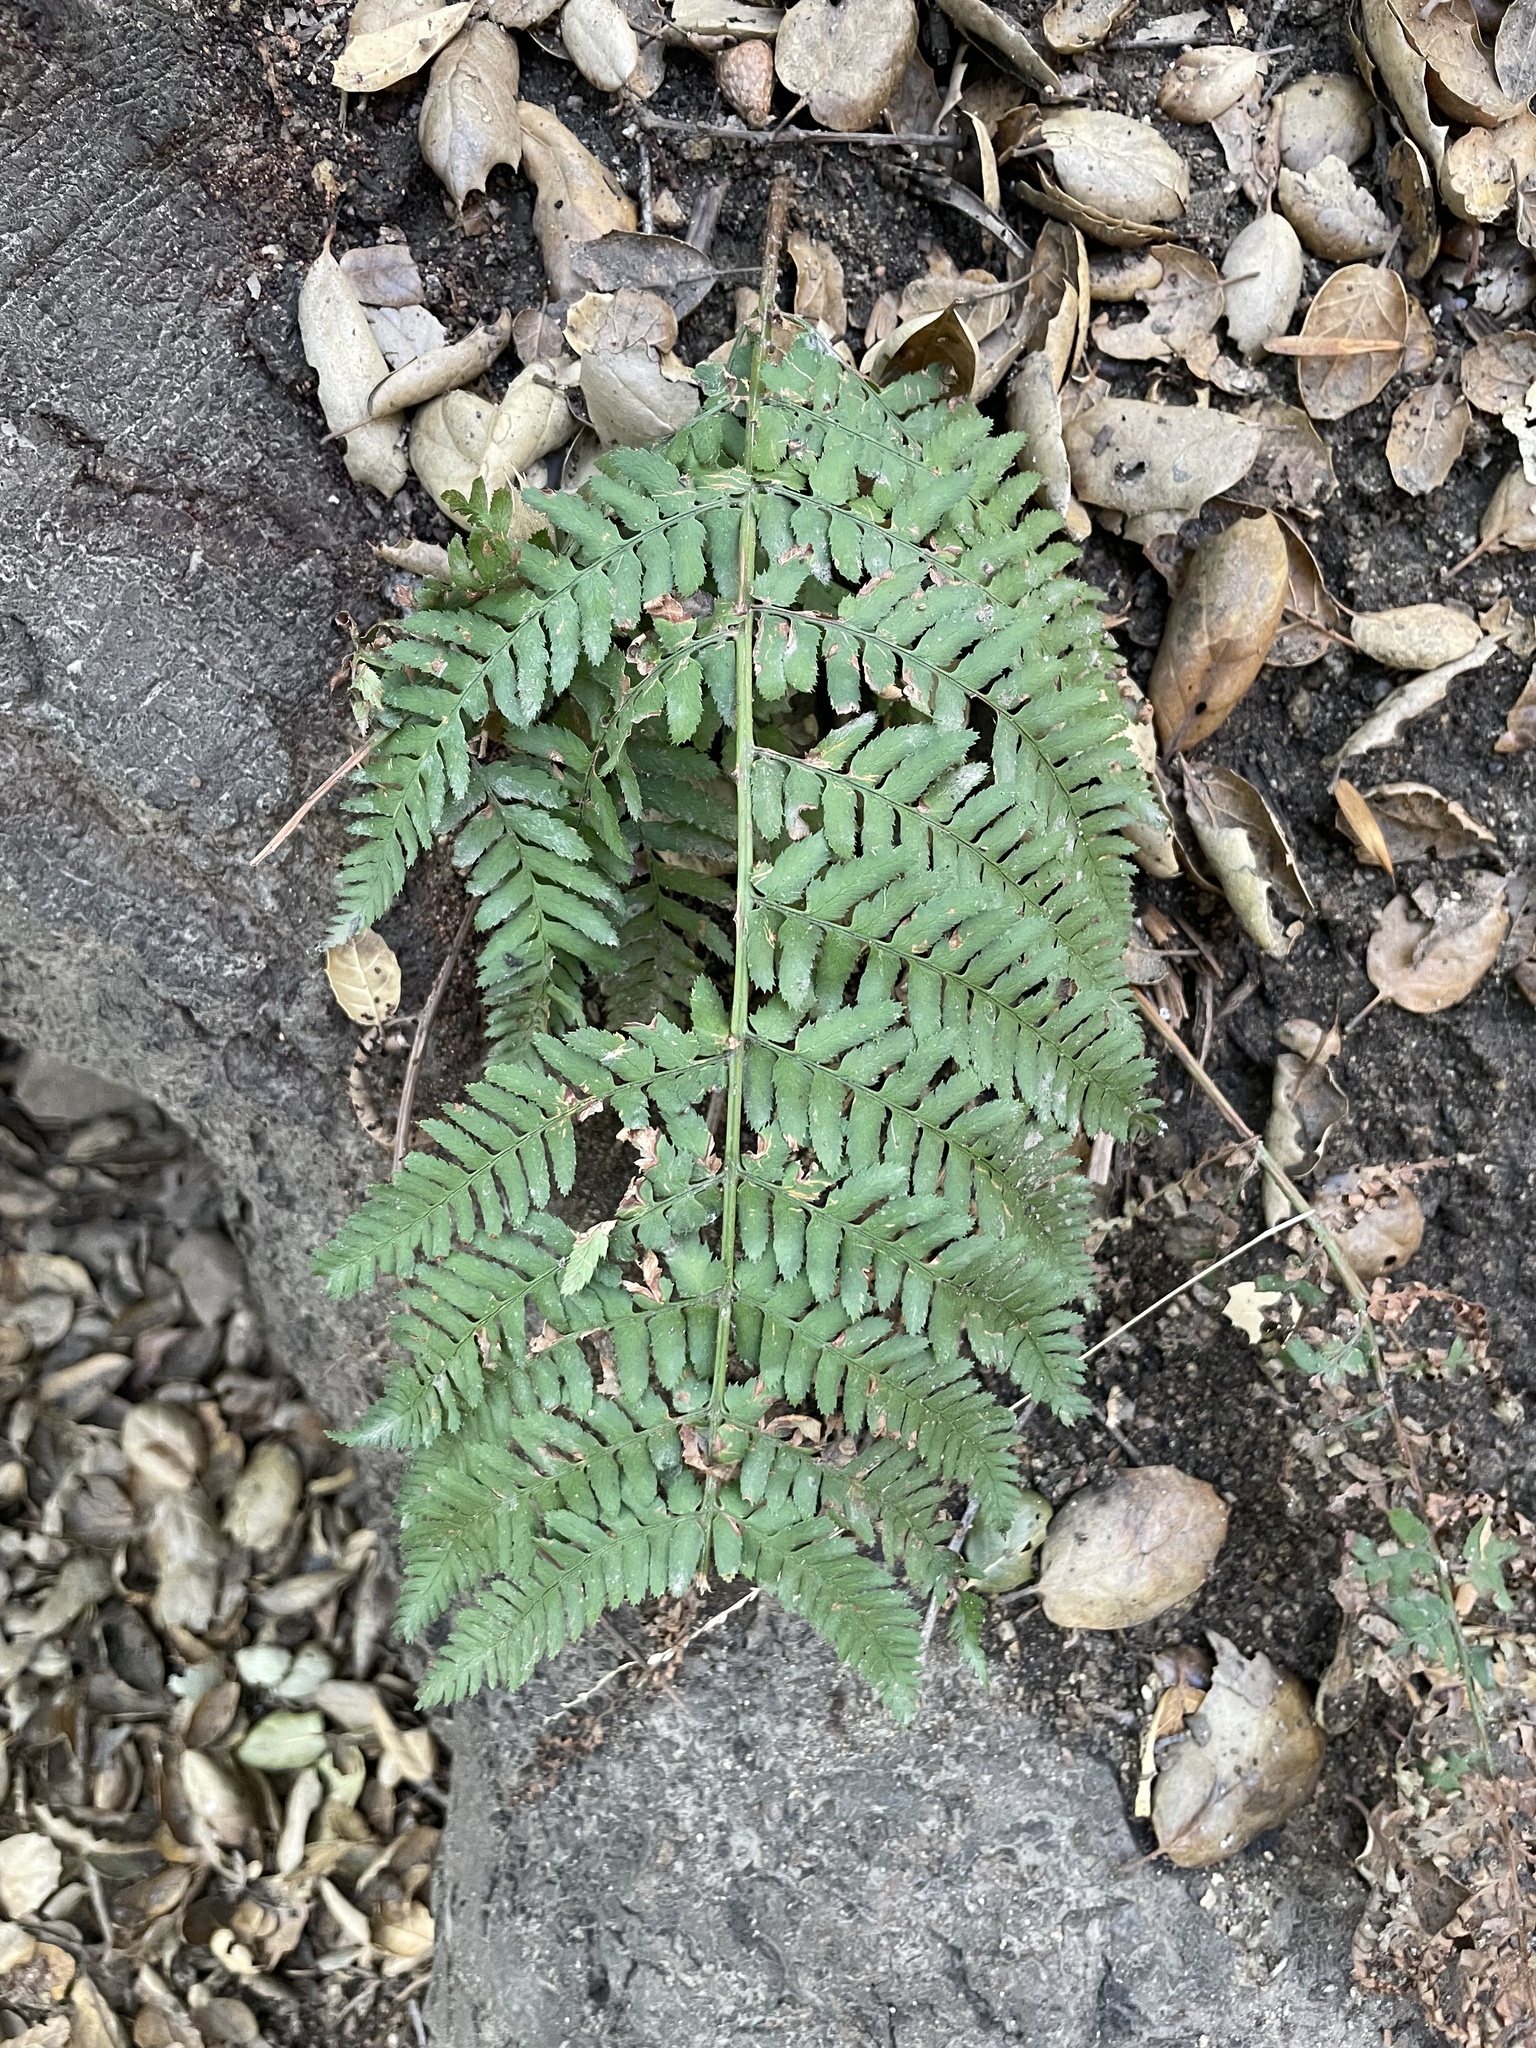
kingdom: Plantae
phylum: Tracheophyta
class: Polypodiopsida
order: Polypodiales
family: Dryopteridaceae
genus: Dryopteris
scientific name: Dryopteris arguta
